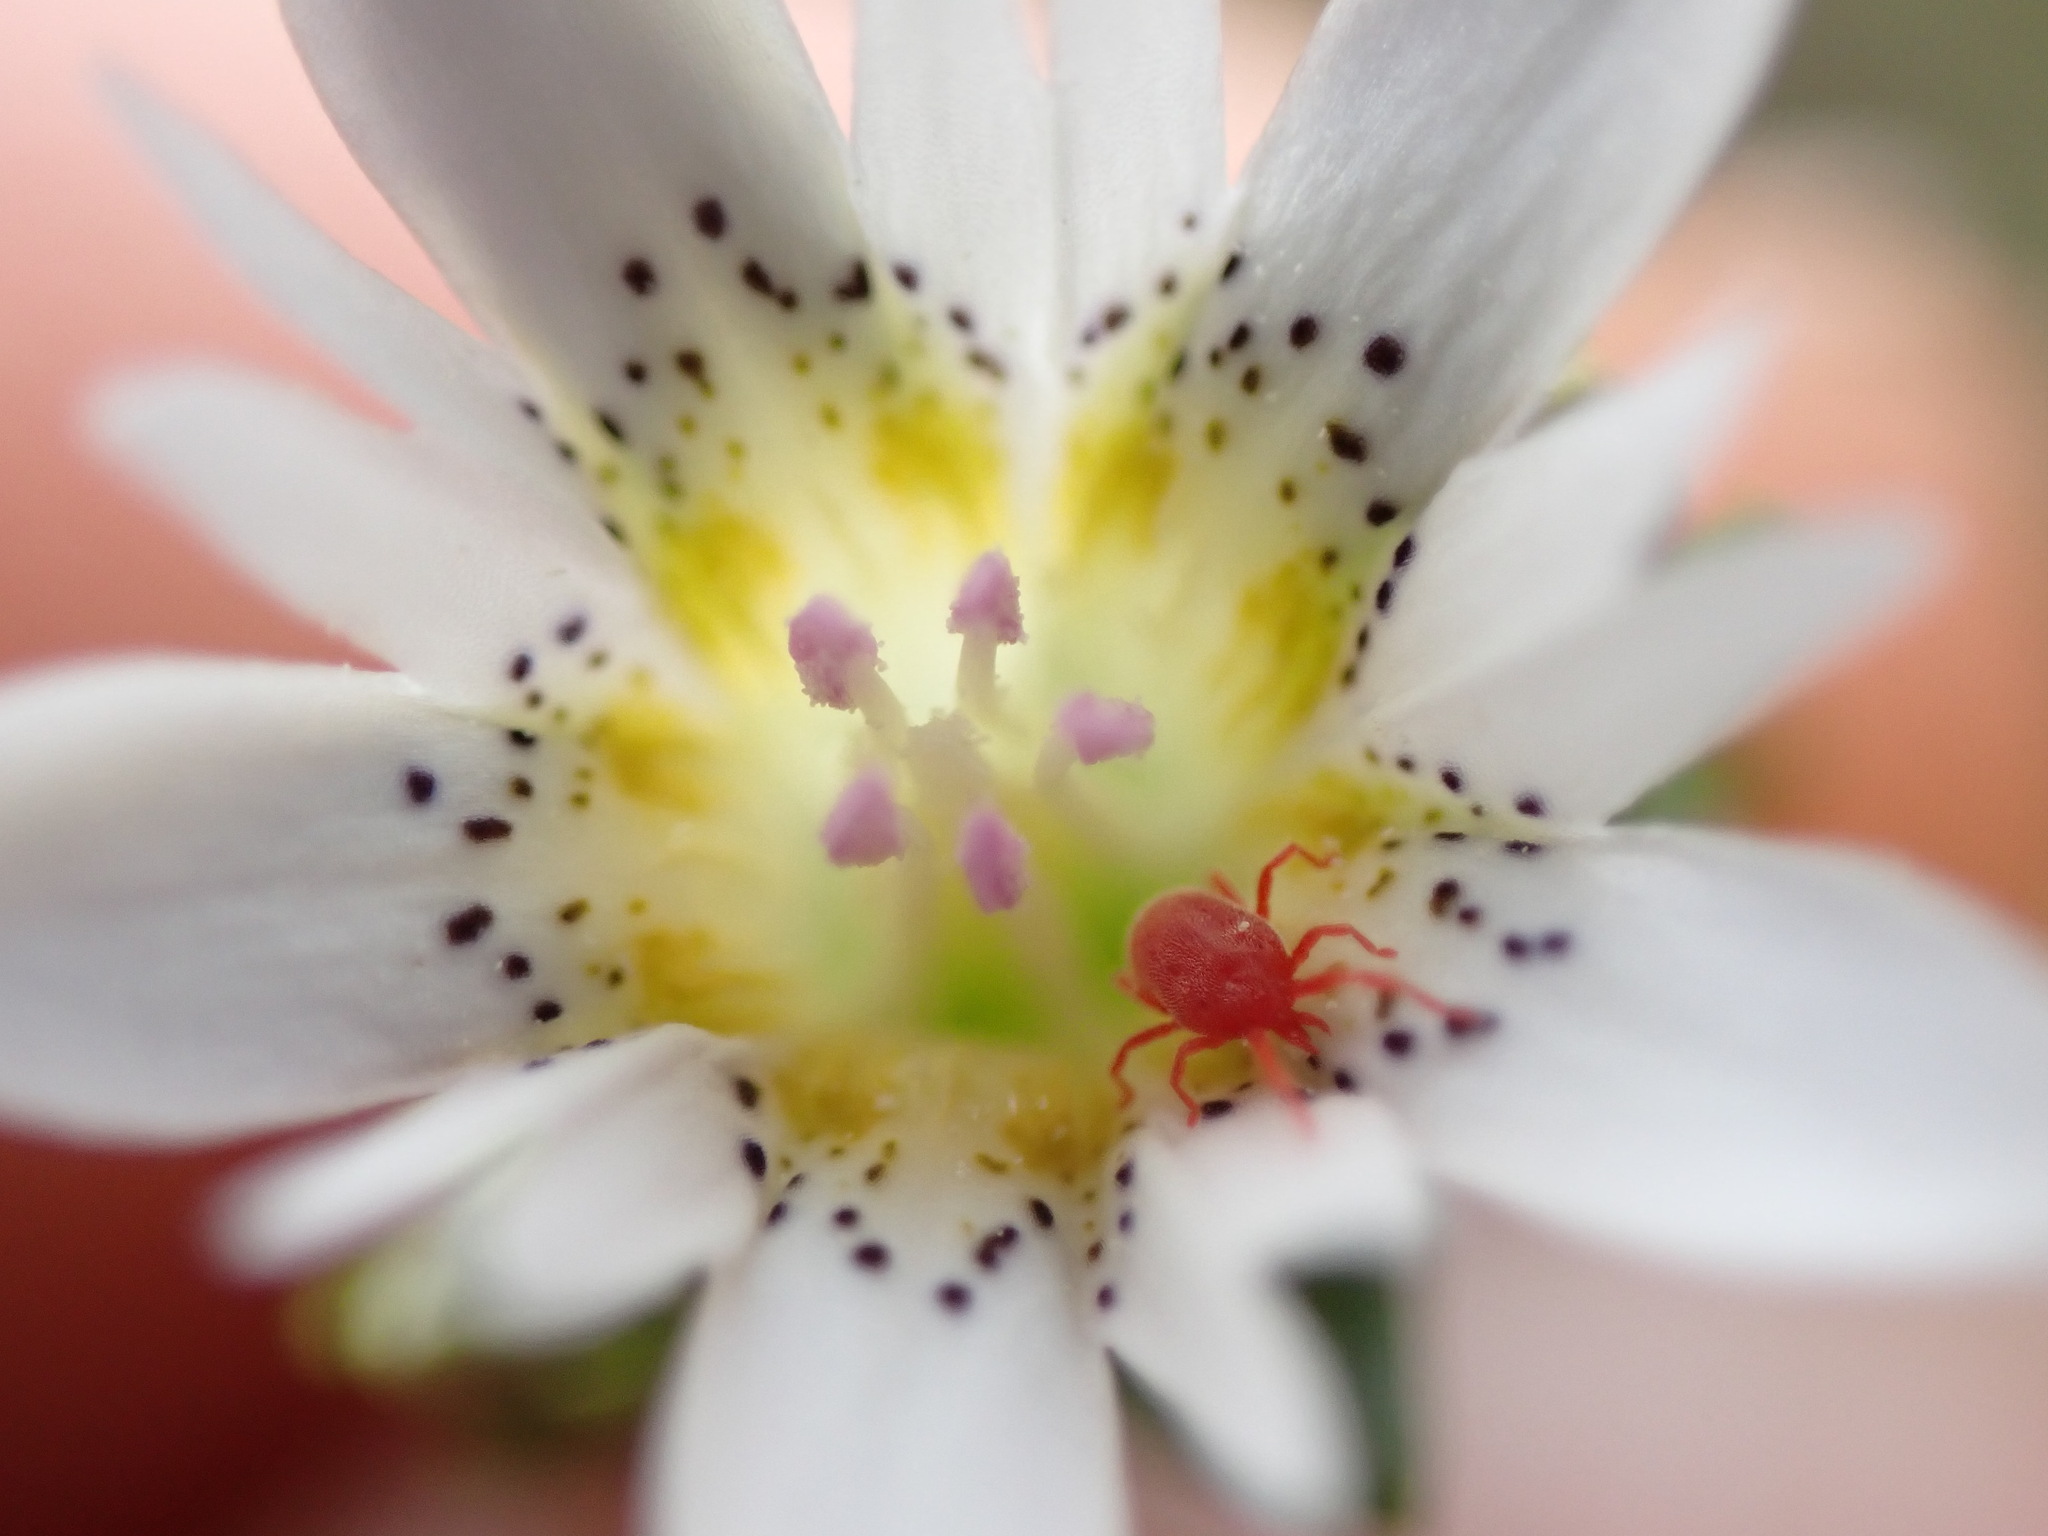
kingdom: Plantae
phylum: Tracheophyta
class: Magnoliopsida
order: Gentianales
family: Gentianaceae
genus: Gentiana
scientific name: Gentiana douglasiana
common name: Swamp gentian
